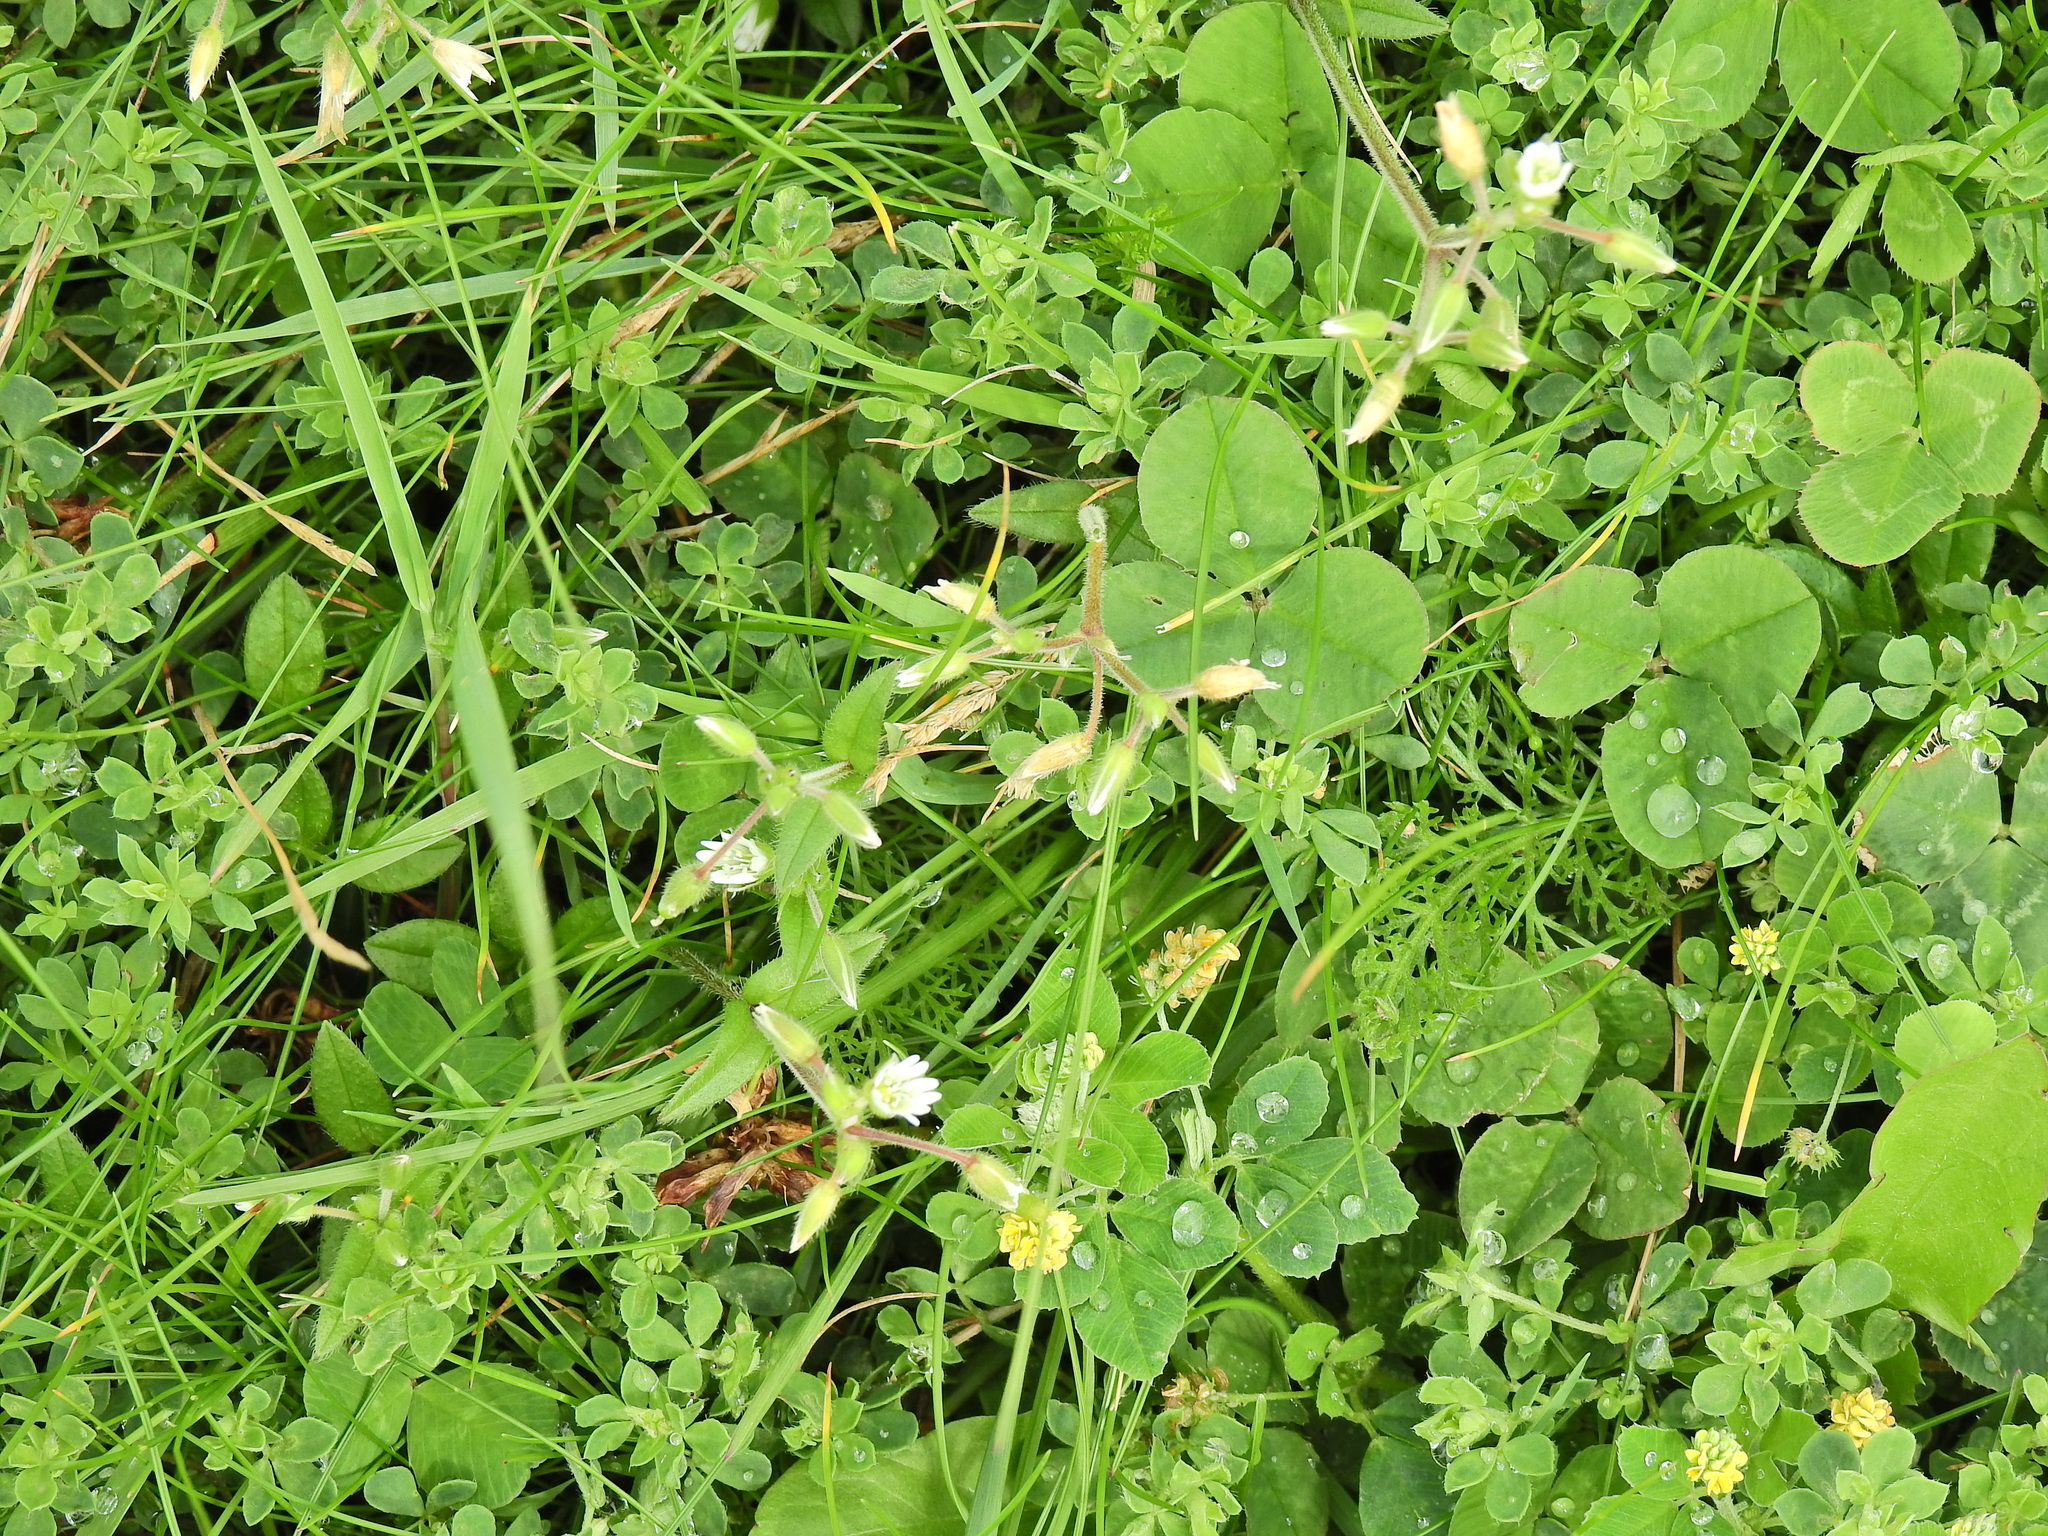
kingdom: Plantae
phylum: Tracheophyta
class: Magnoliopsida
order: Caryophyllales
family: Caryophyllaceae
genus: Cerastium
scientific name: Cerastium fontanum
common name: Common mouse-ear
